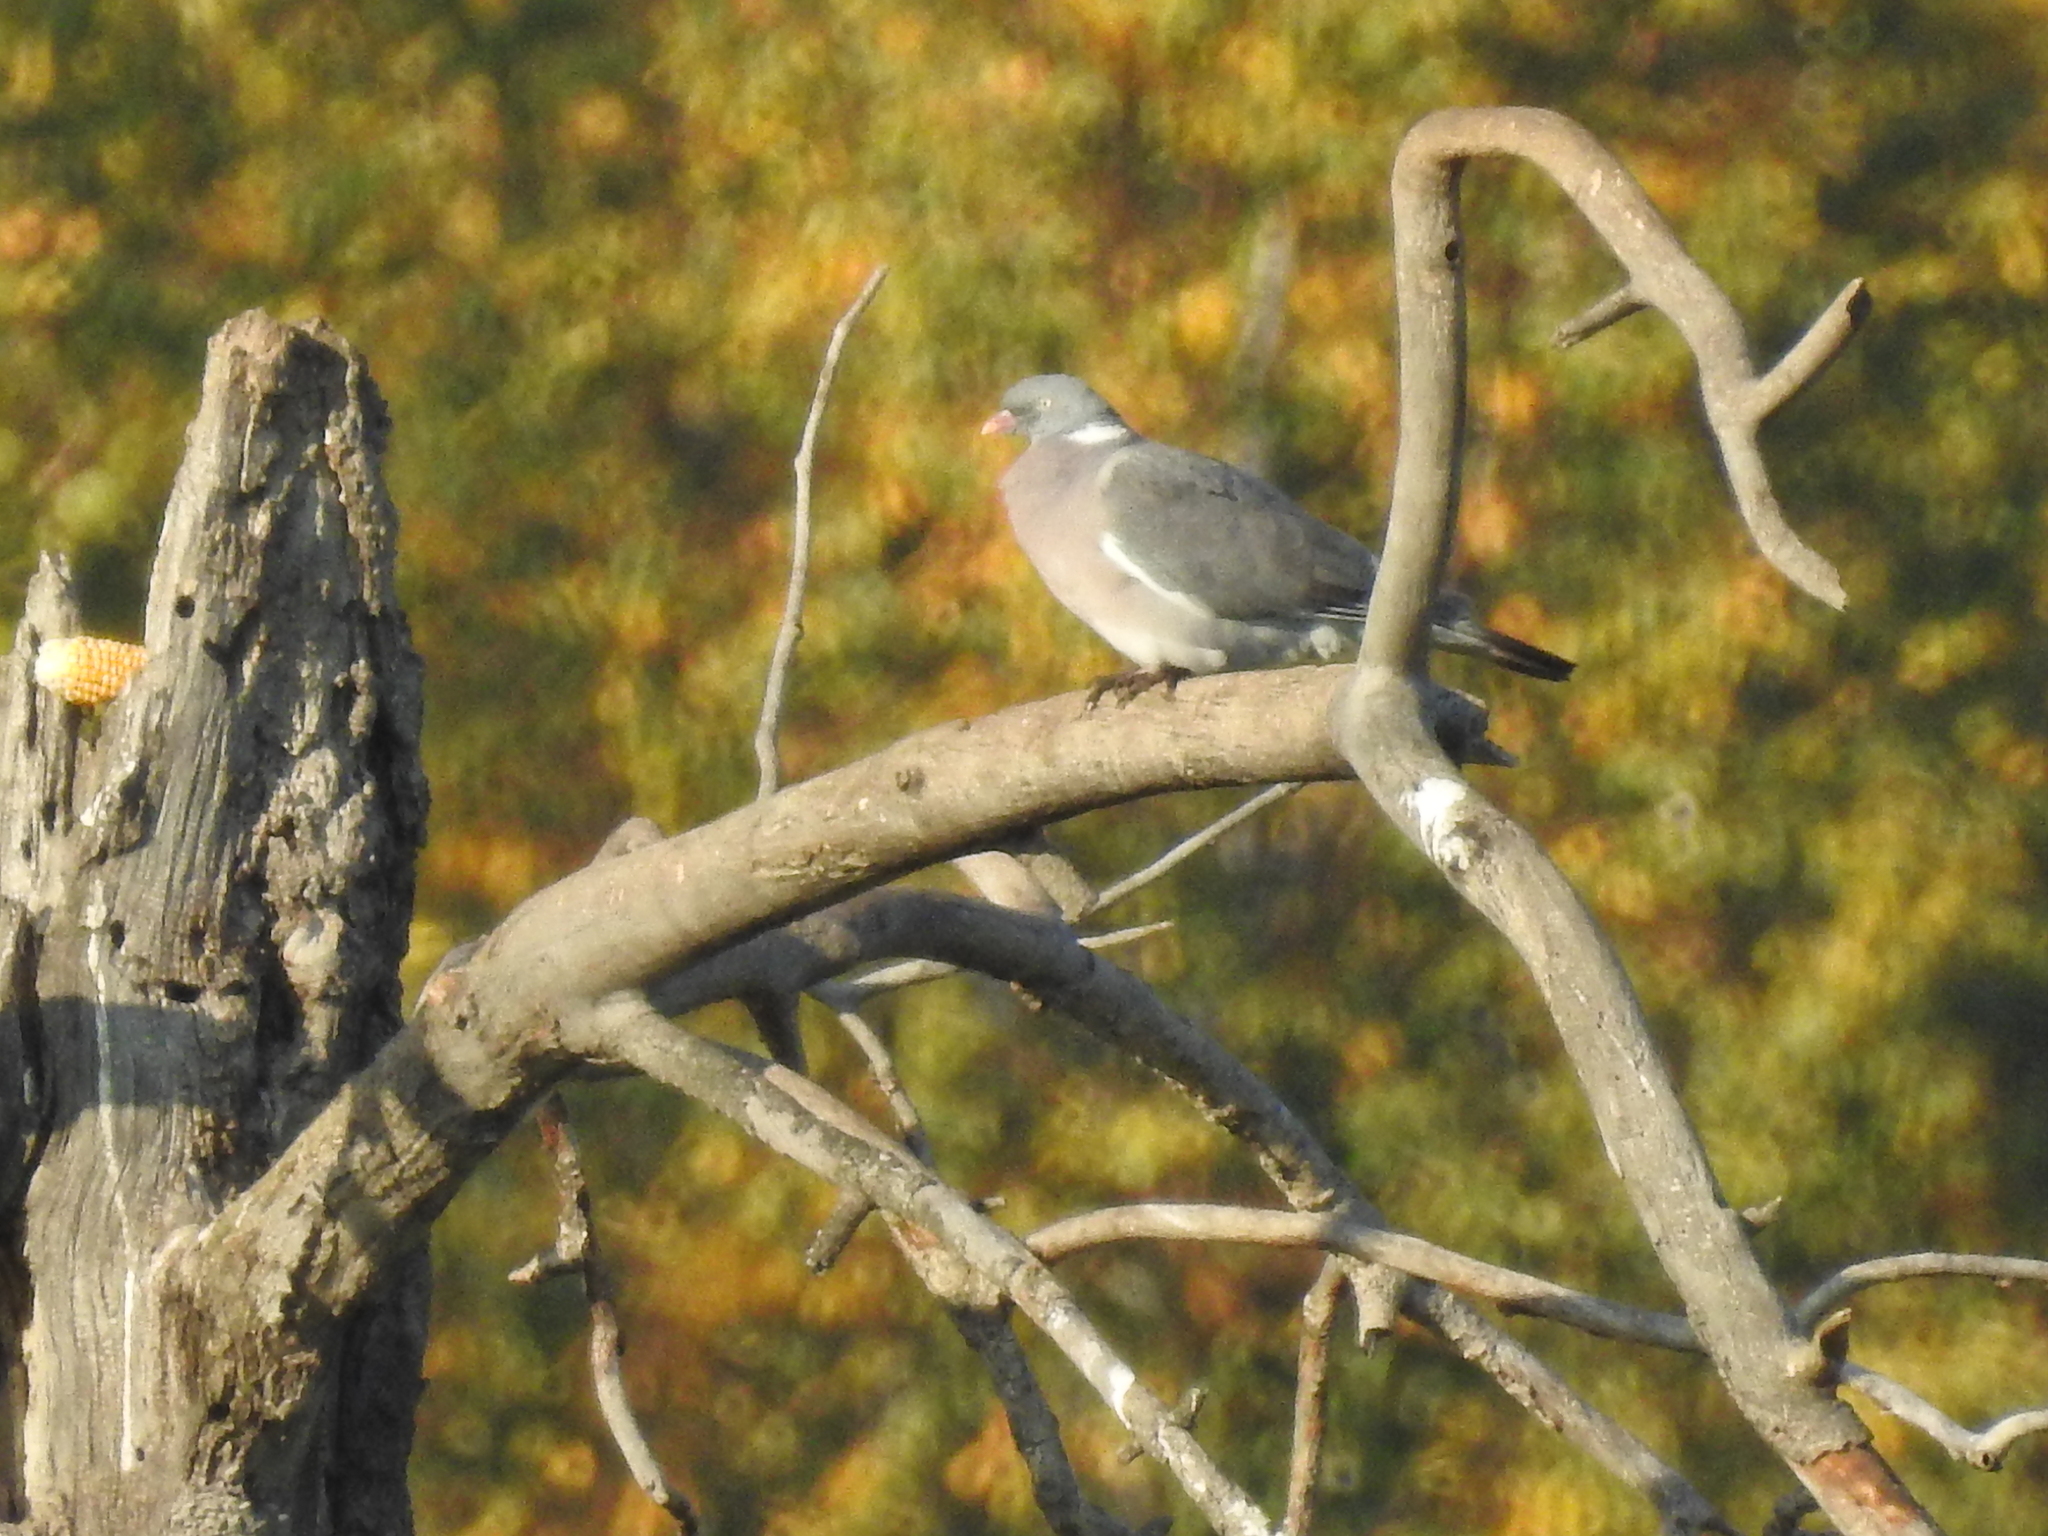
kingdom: Animalia
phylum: Chordata
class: Aves
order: Columbiformes
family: Columbidae
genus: Columba
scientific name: Columba palumbus
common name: Common wood pigeon
